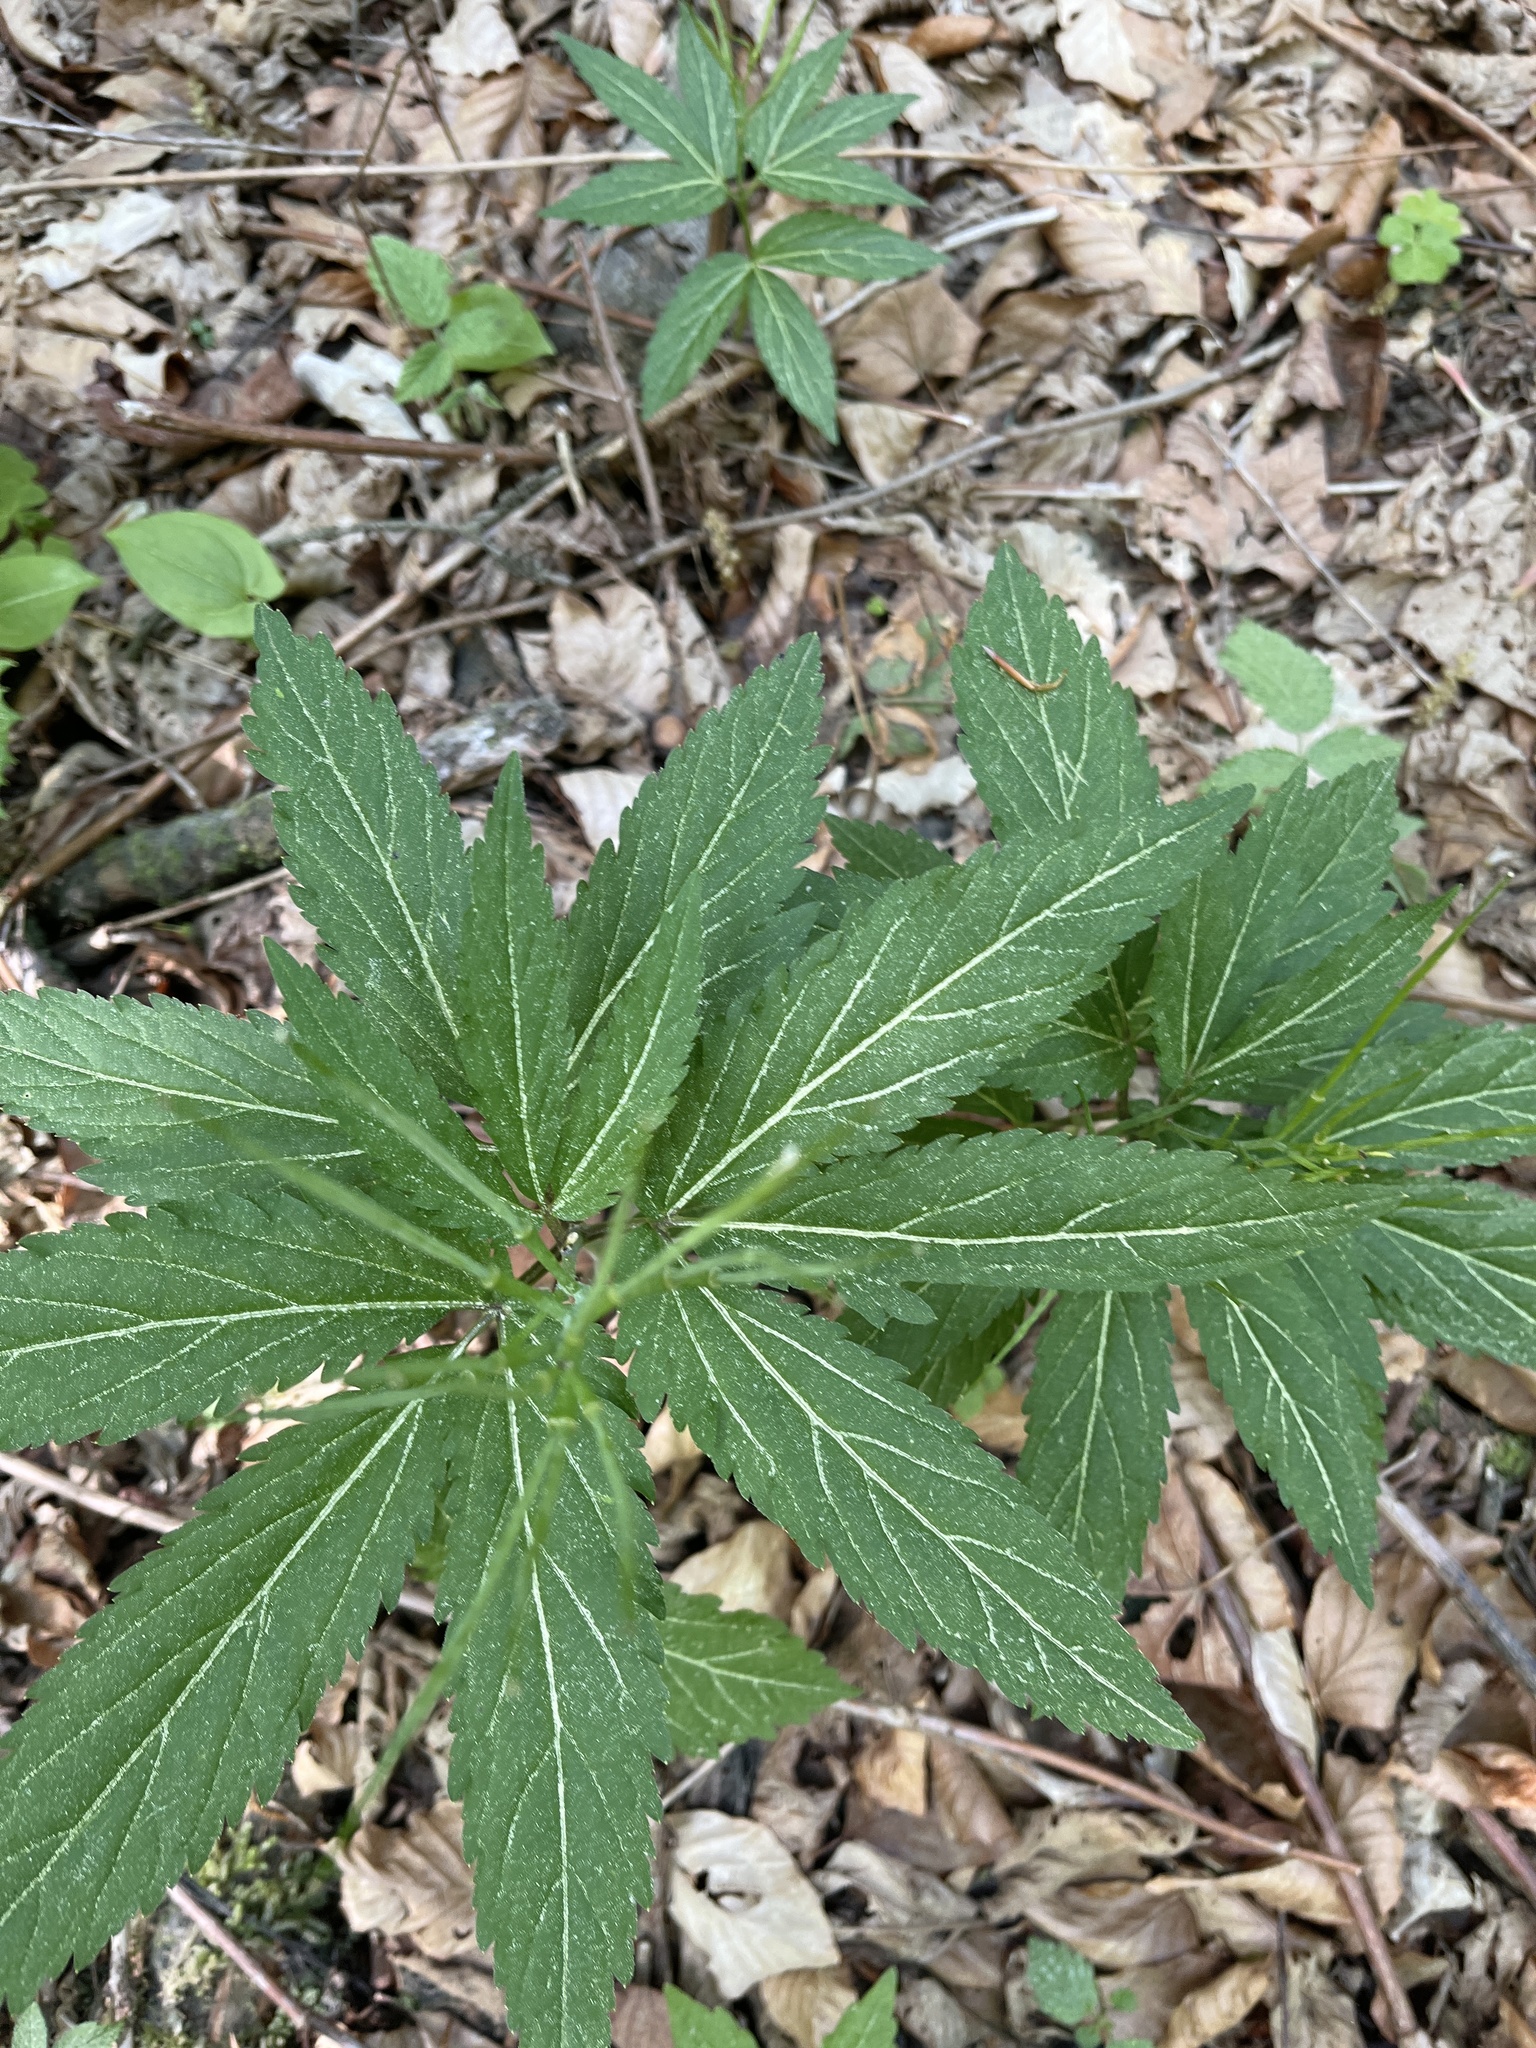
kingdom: Plantae
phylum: Tracheophyta
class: Magnoliopsida
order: Brassicales
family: Brassicaceae
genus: Cardamine
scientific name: Cardamine enneaphyllos
